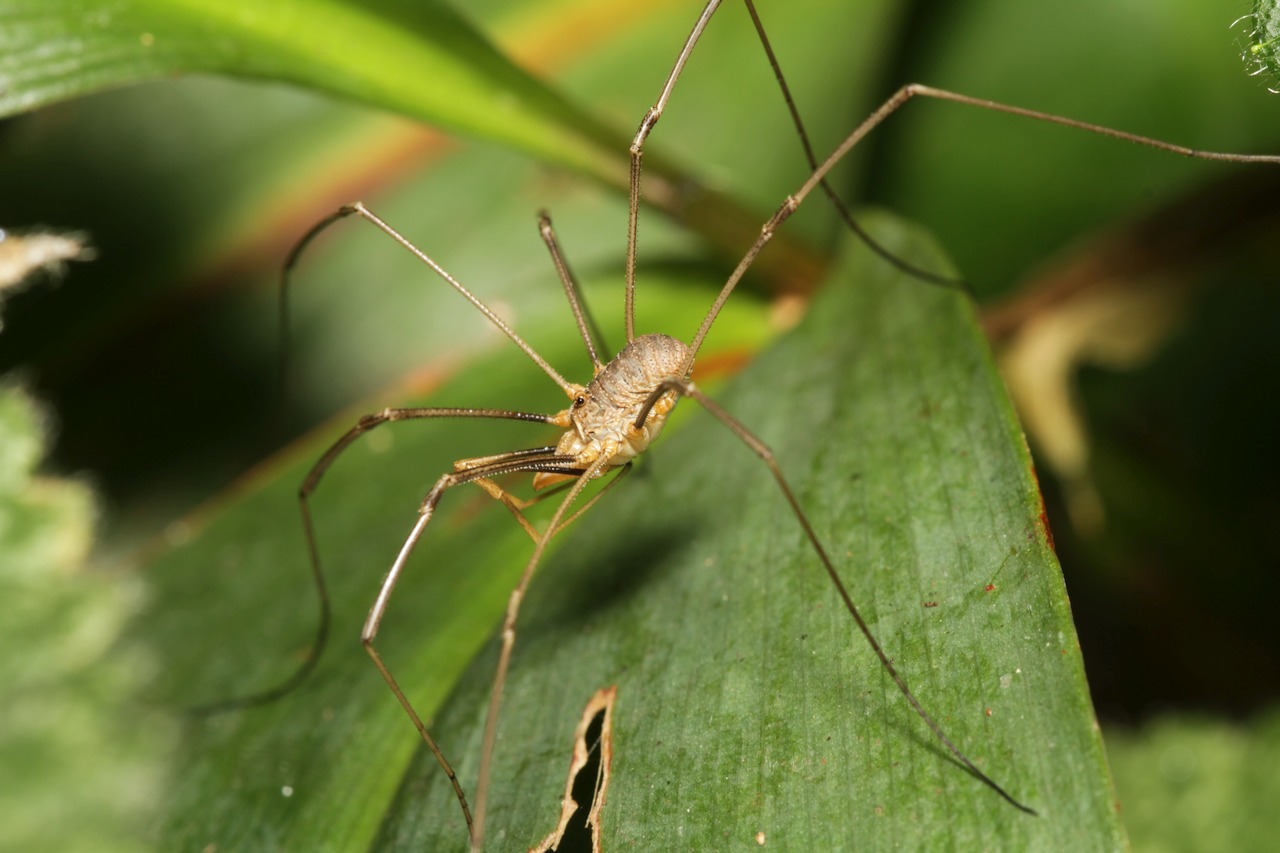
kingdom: Animalia
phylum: Arthropoda
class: Arachnida
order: Opiliones
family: Phalangiidae
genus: Phalangium
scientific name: Phalangium opilio
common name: Daddy longleg
